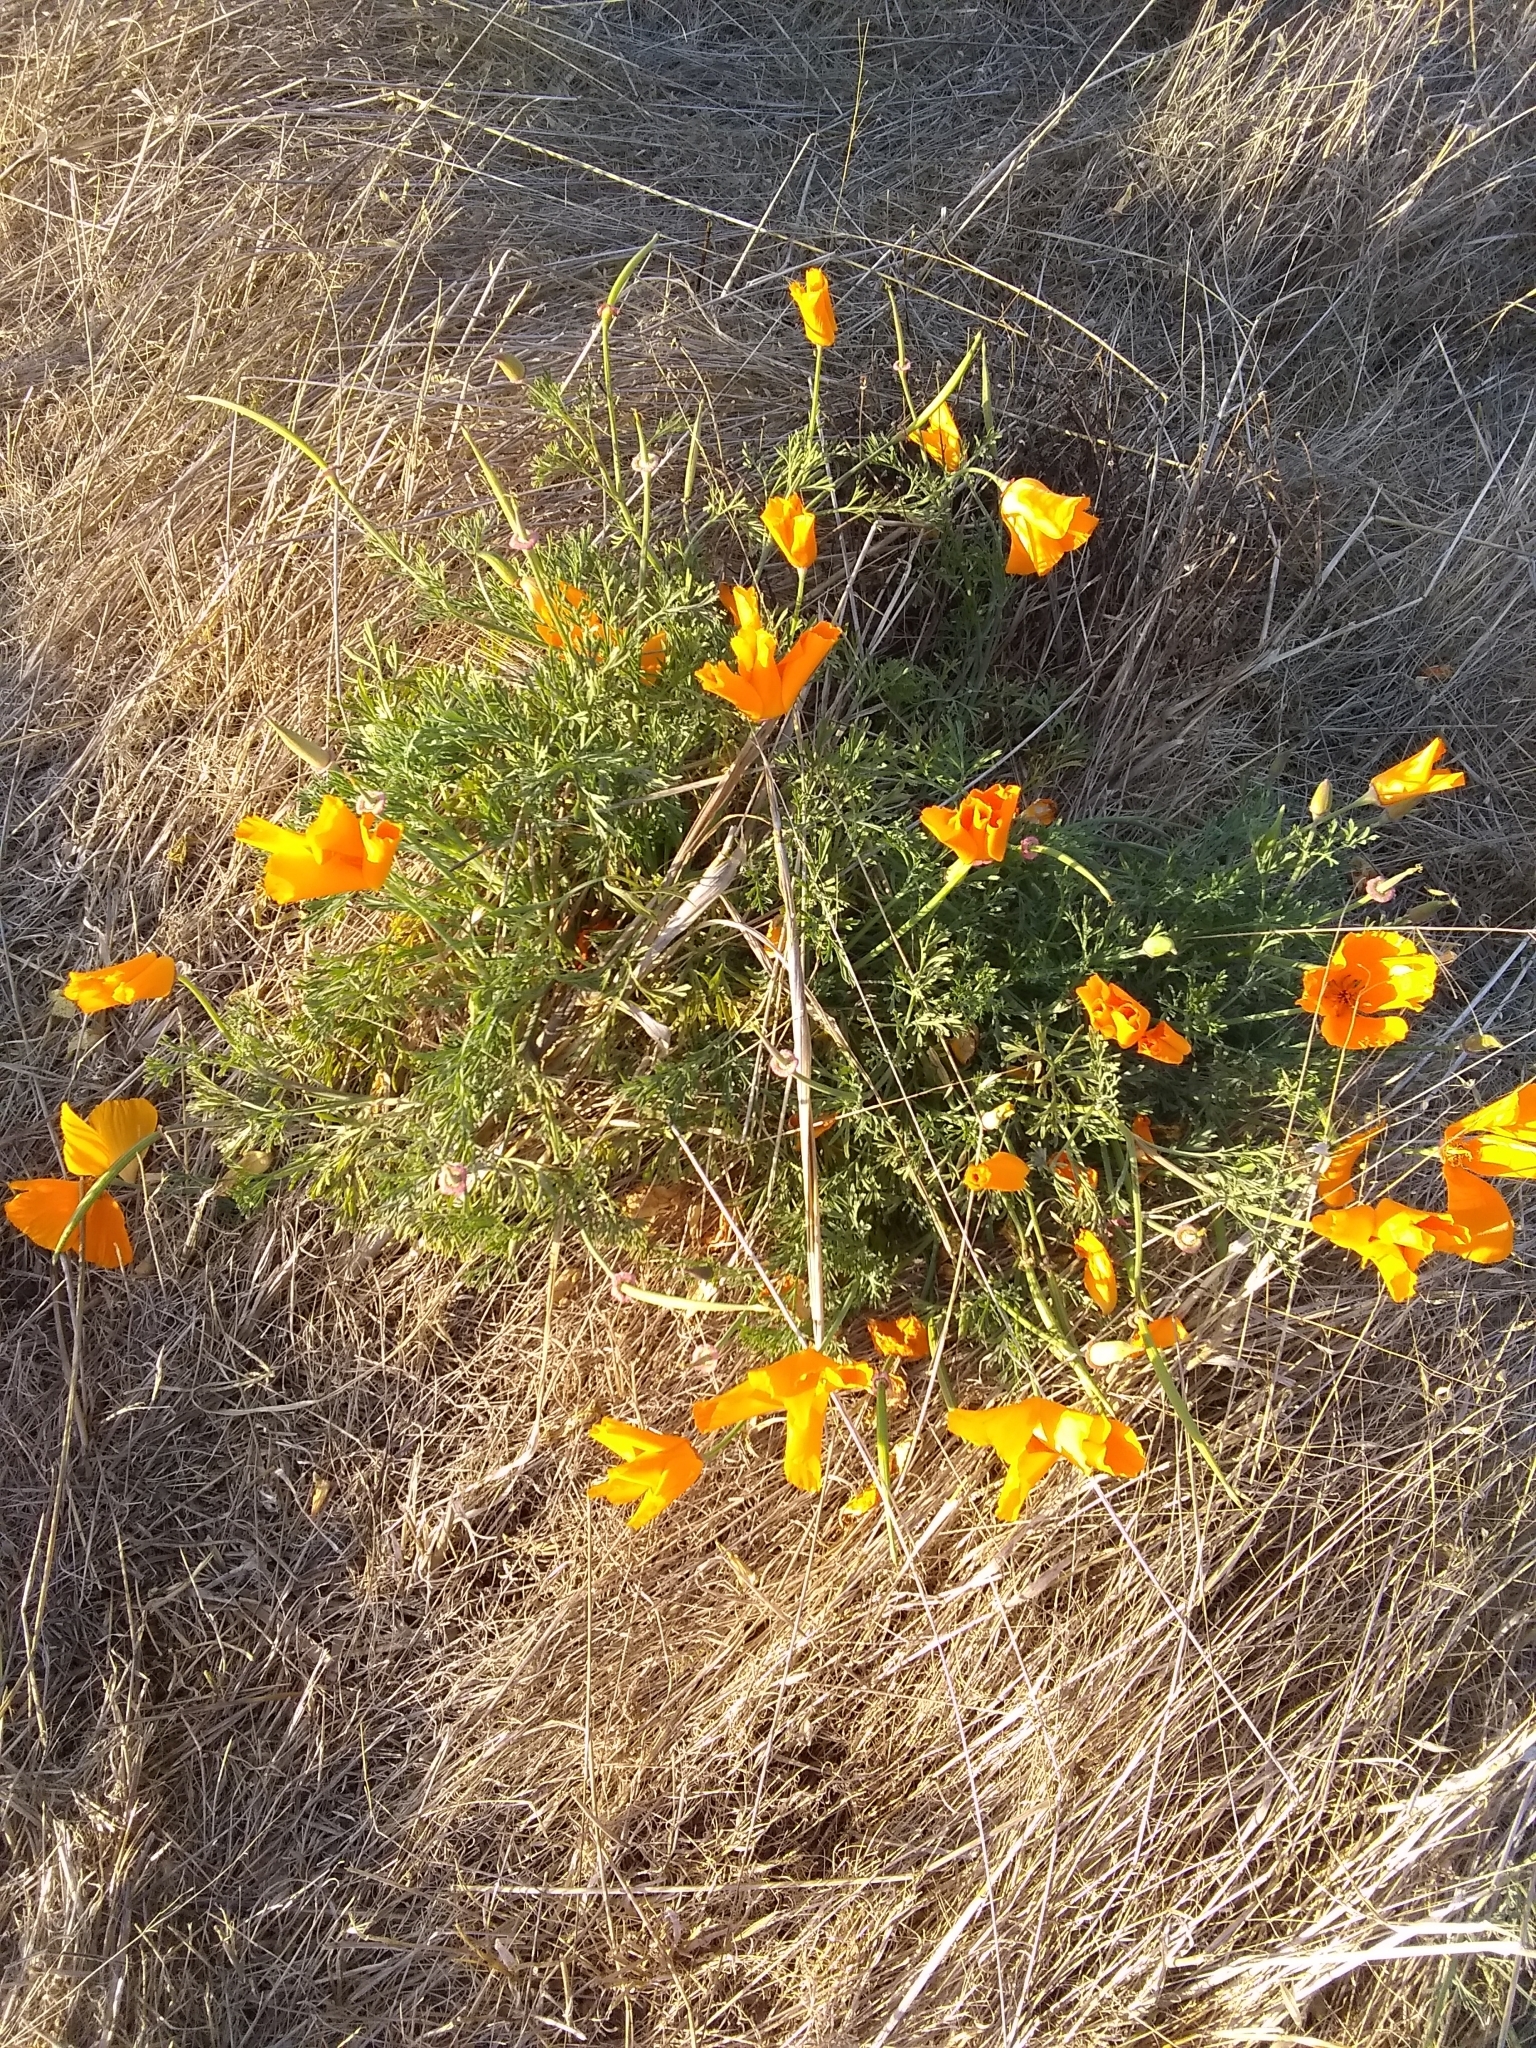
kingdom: Plantae
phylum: Tracheophyta
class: Magnoliopsida
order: Ranunculales
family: Papaveraceae
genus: Eschscholzia
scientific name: Eschscholzia californica
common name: California poppy
